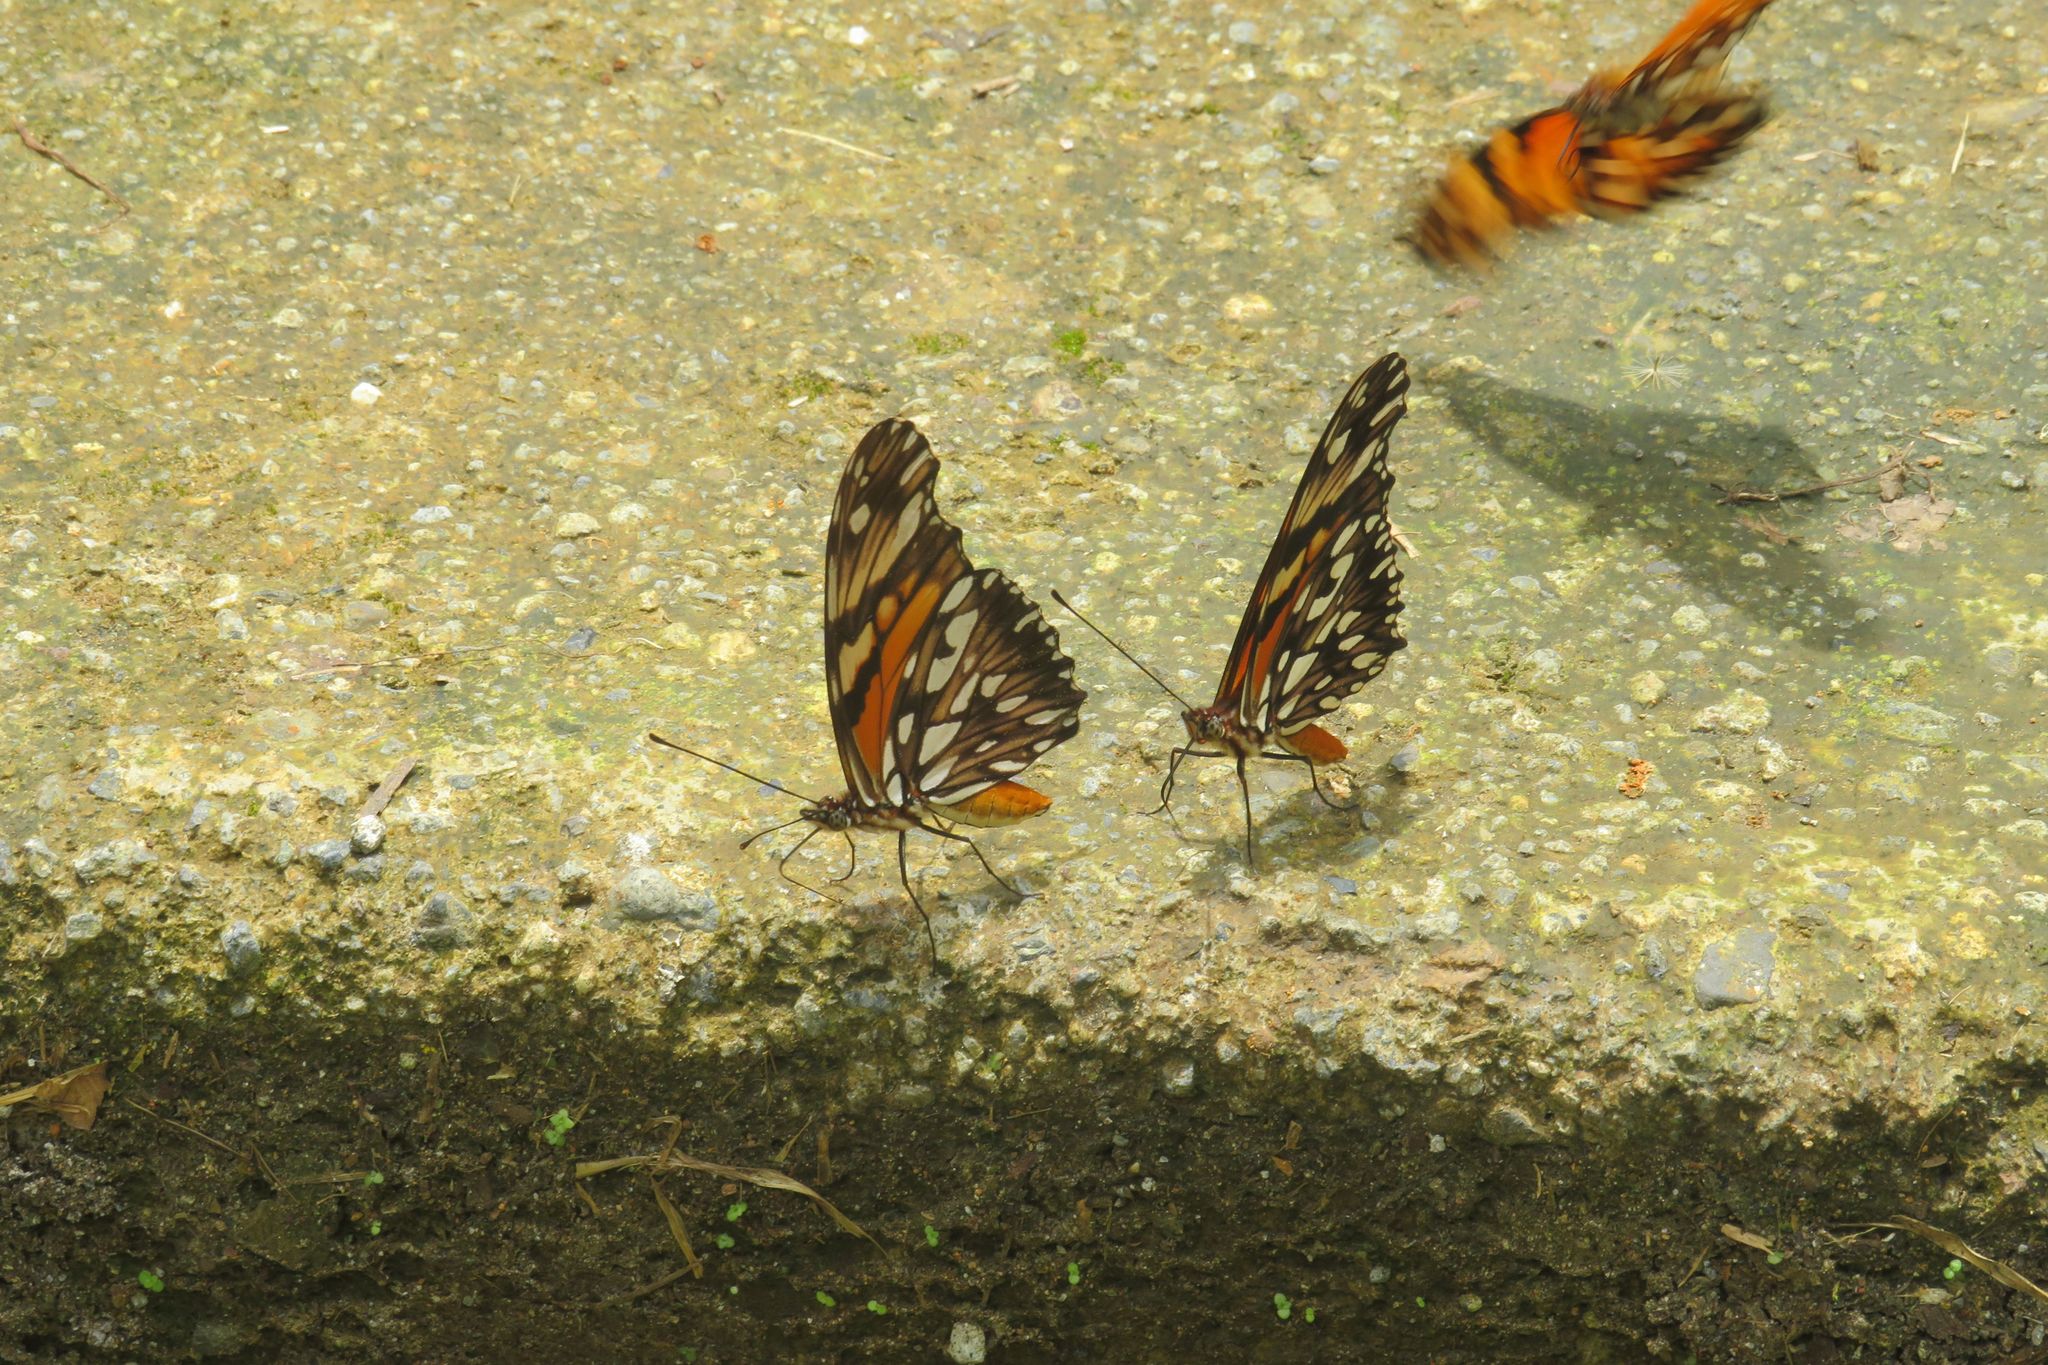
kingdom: Animalia
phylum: Arthropoda
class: Insecta
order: Lepidoptera
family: Nymphalidae
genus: Dione
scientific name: Dione juno
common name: Juno silverspot
